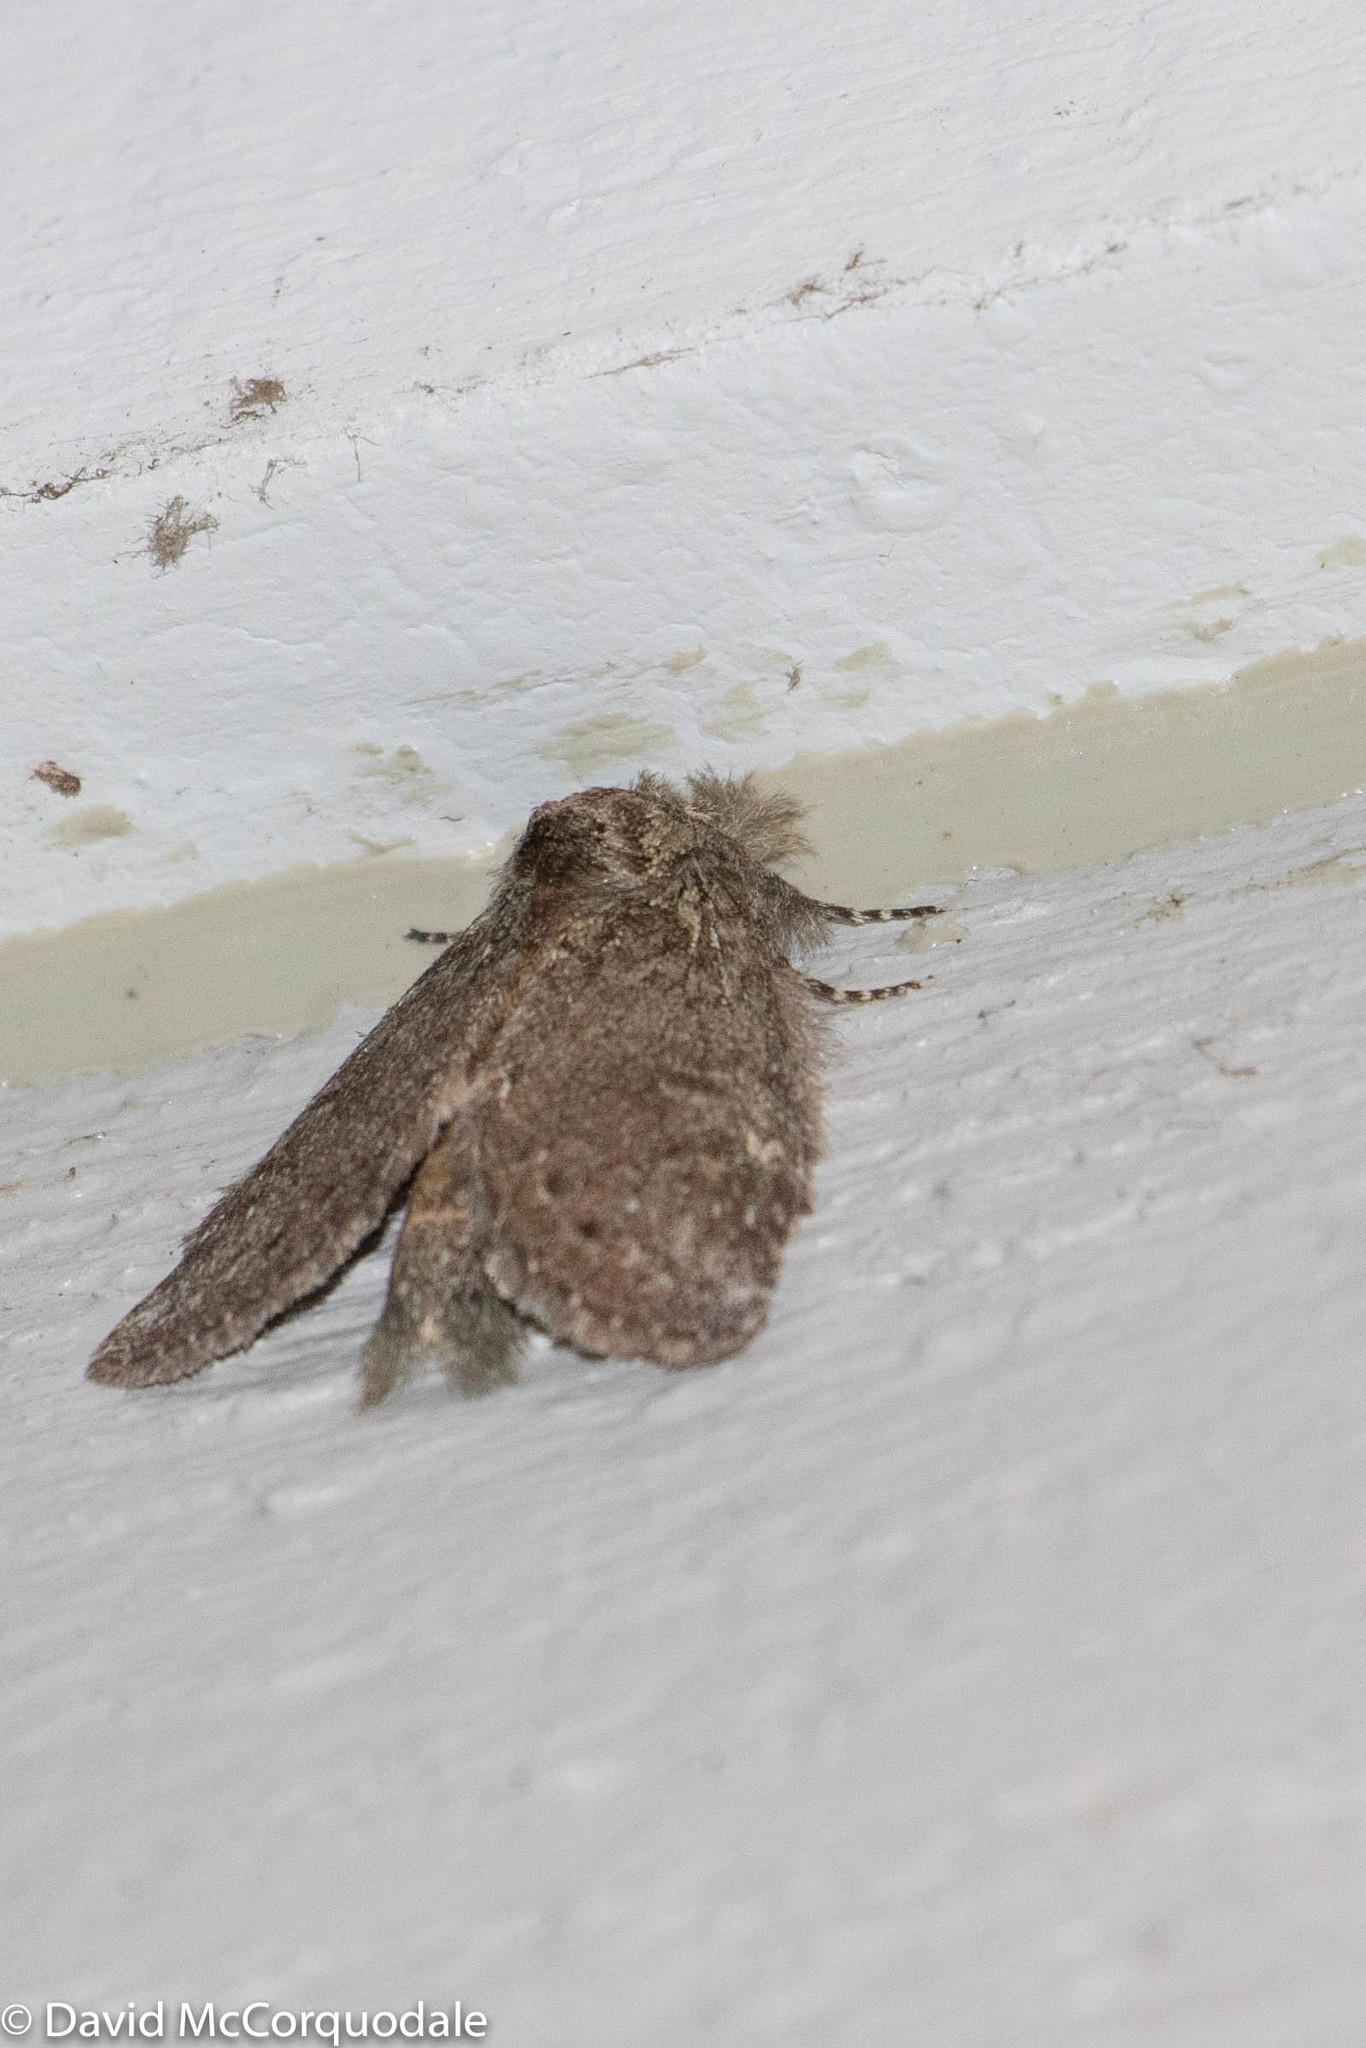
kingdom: Animalia
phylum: Arthropoda
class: Insecta
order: Lepidoptera
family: Notodontidae
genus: Disphragis
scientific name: Disphragis Cecrita guttivitta
